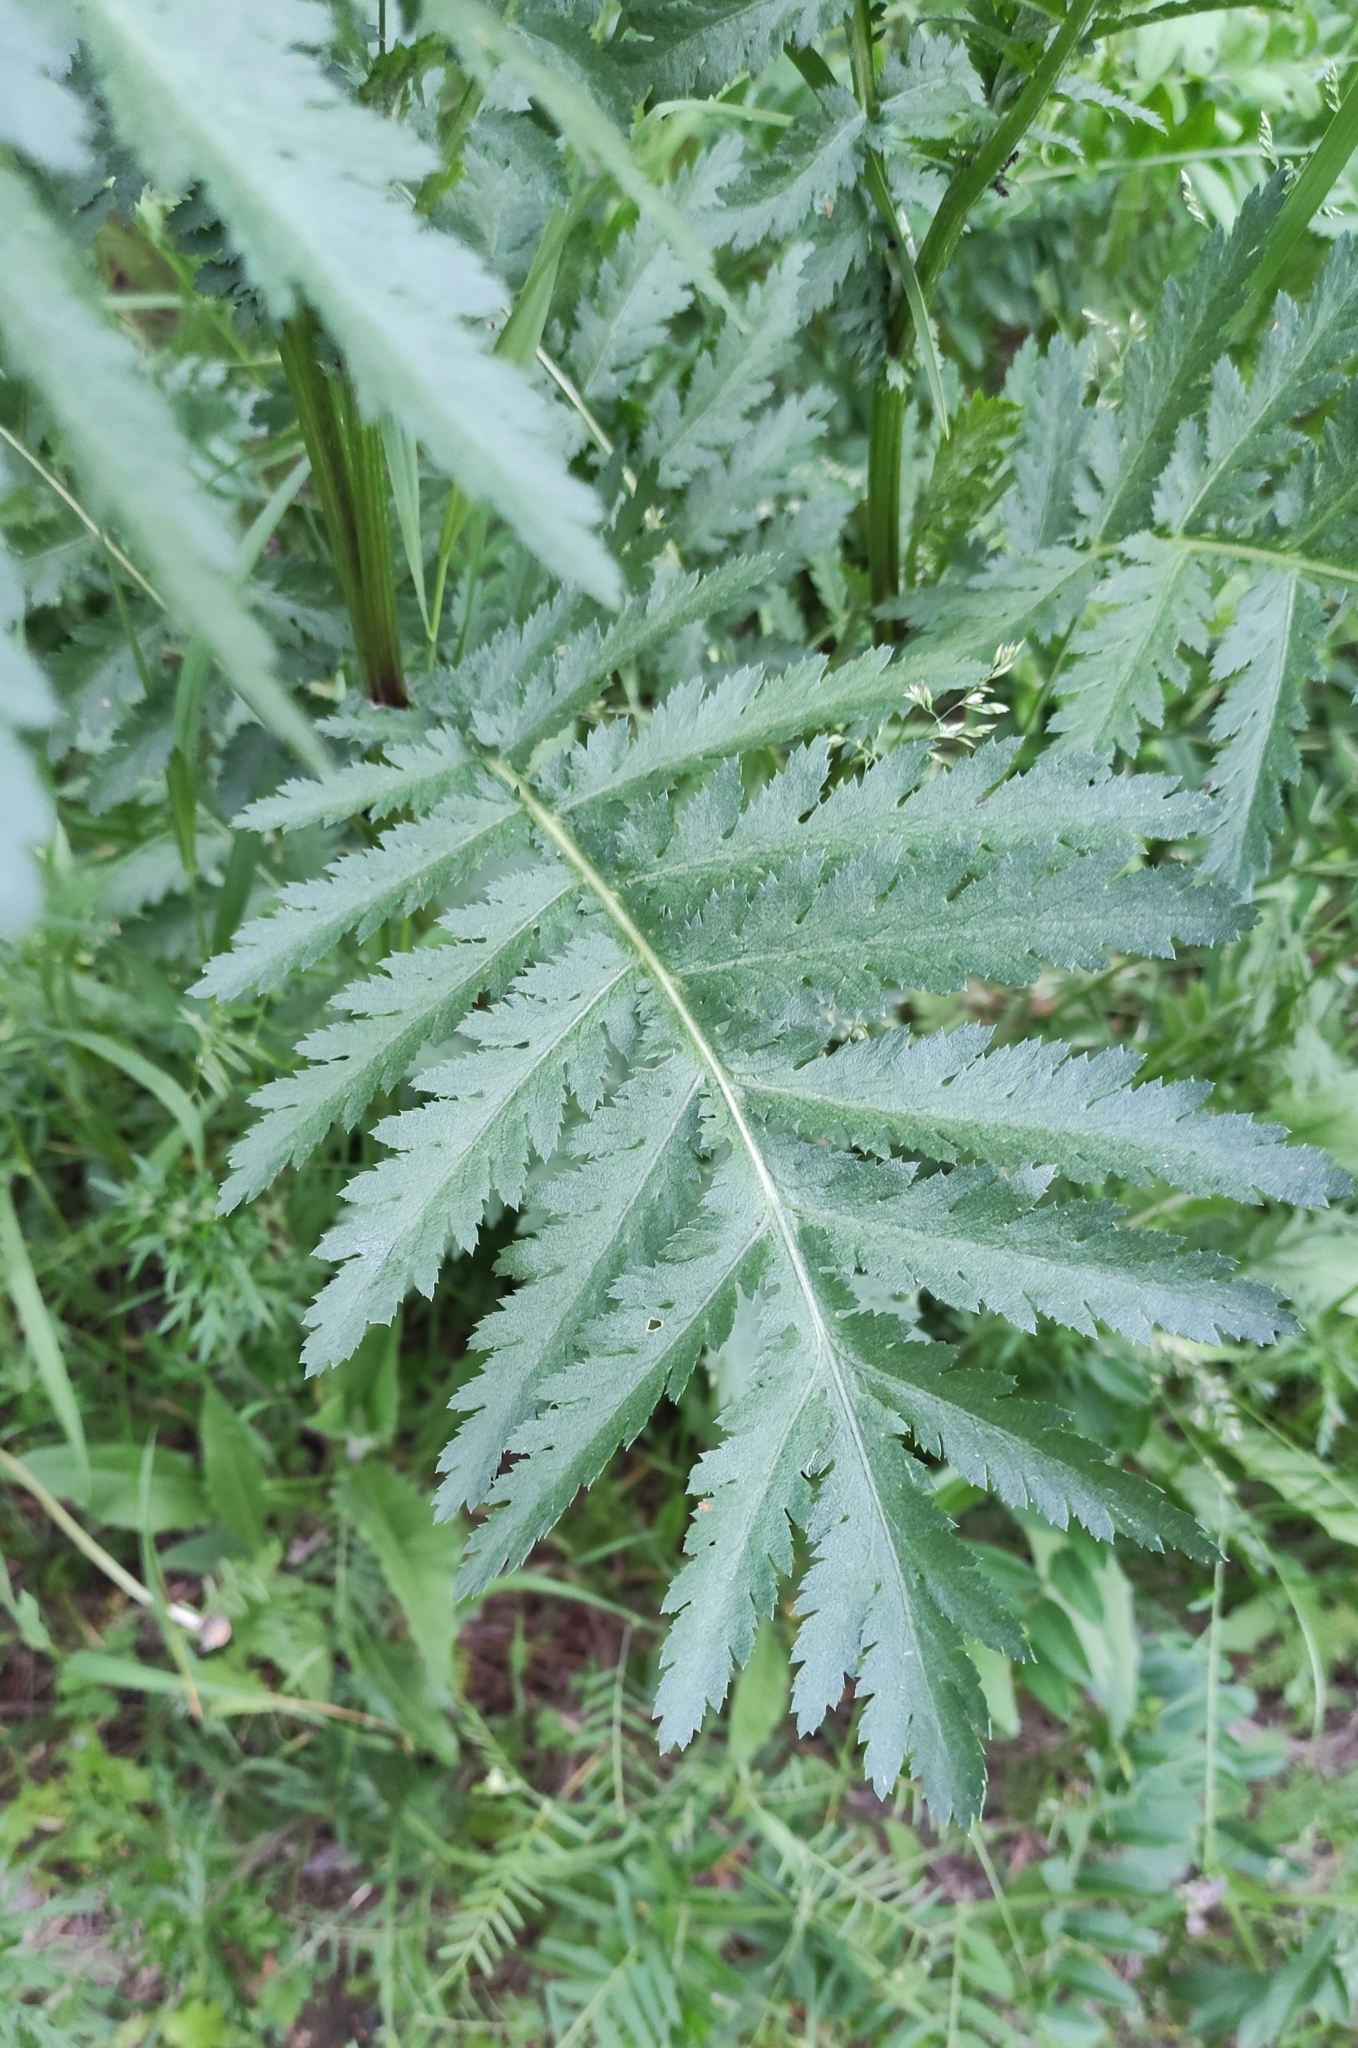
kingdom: Plantae
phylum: Tracheophyta
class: Magnoliopsida
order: Asterales
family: Asteraceae
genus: Tanacetum
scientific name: Tanacetum vulgare
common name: Common tansy
